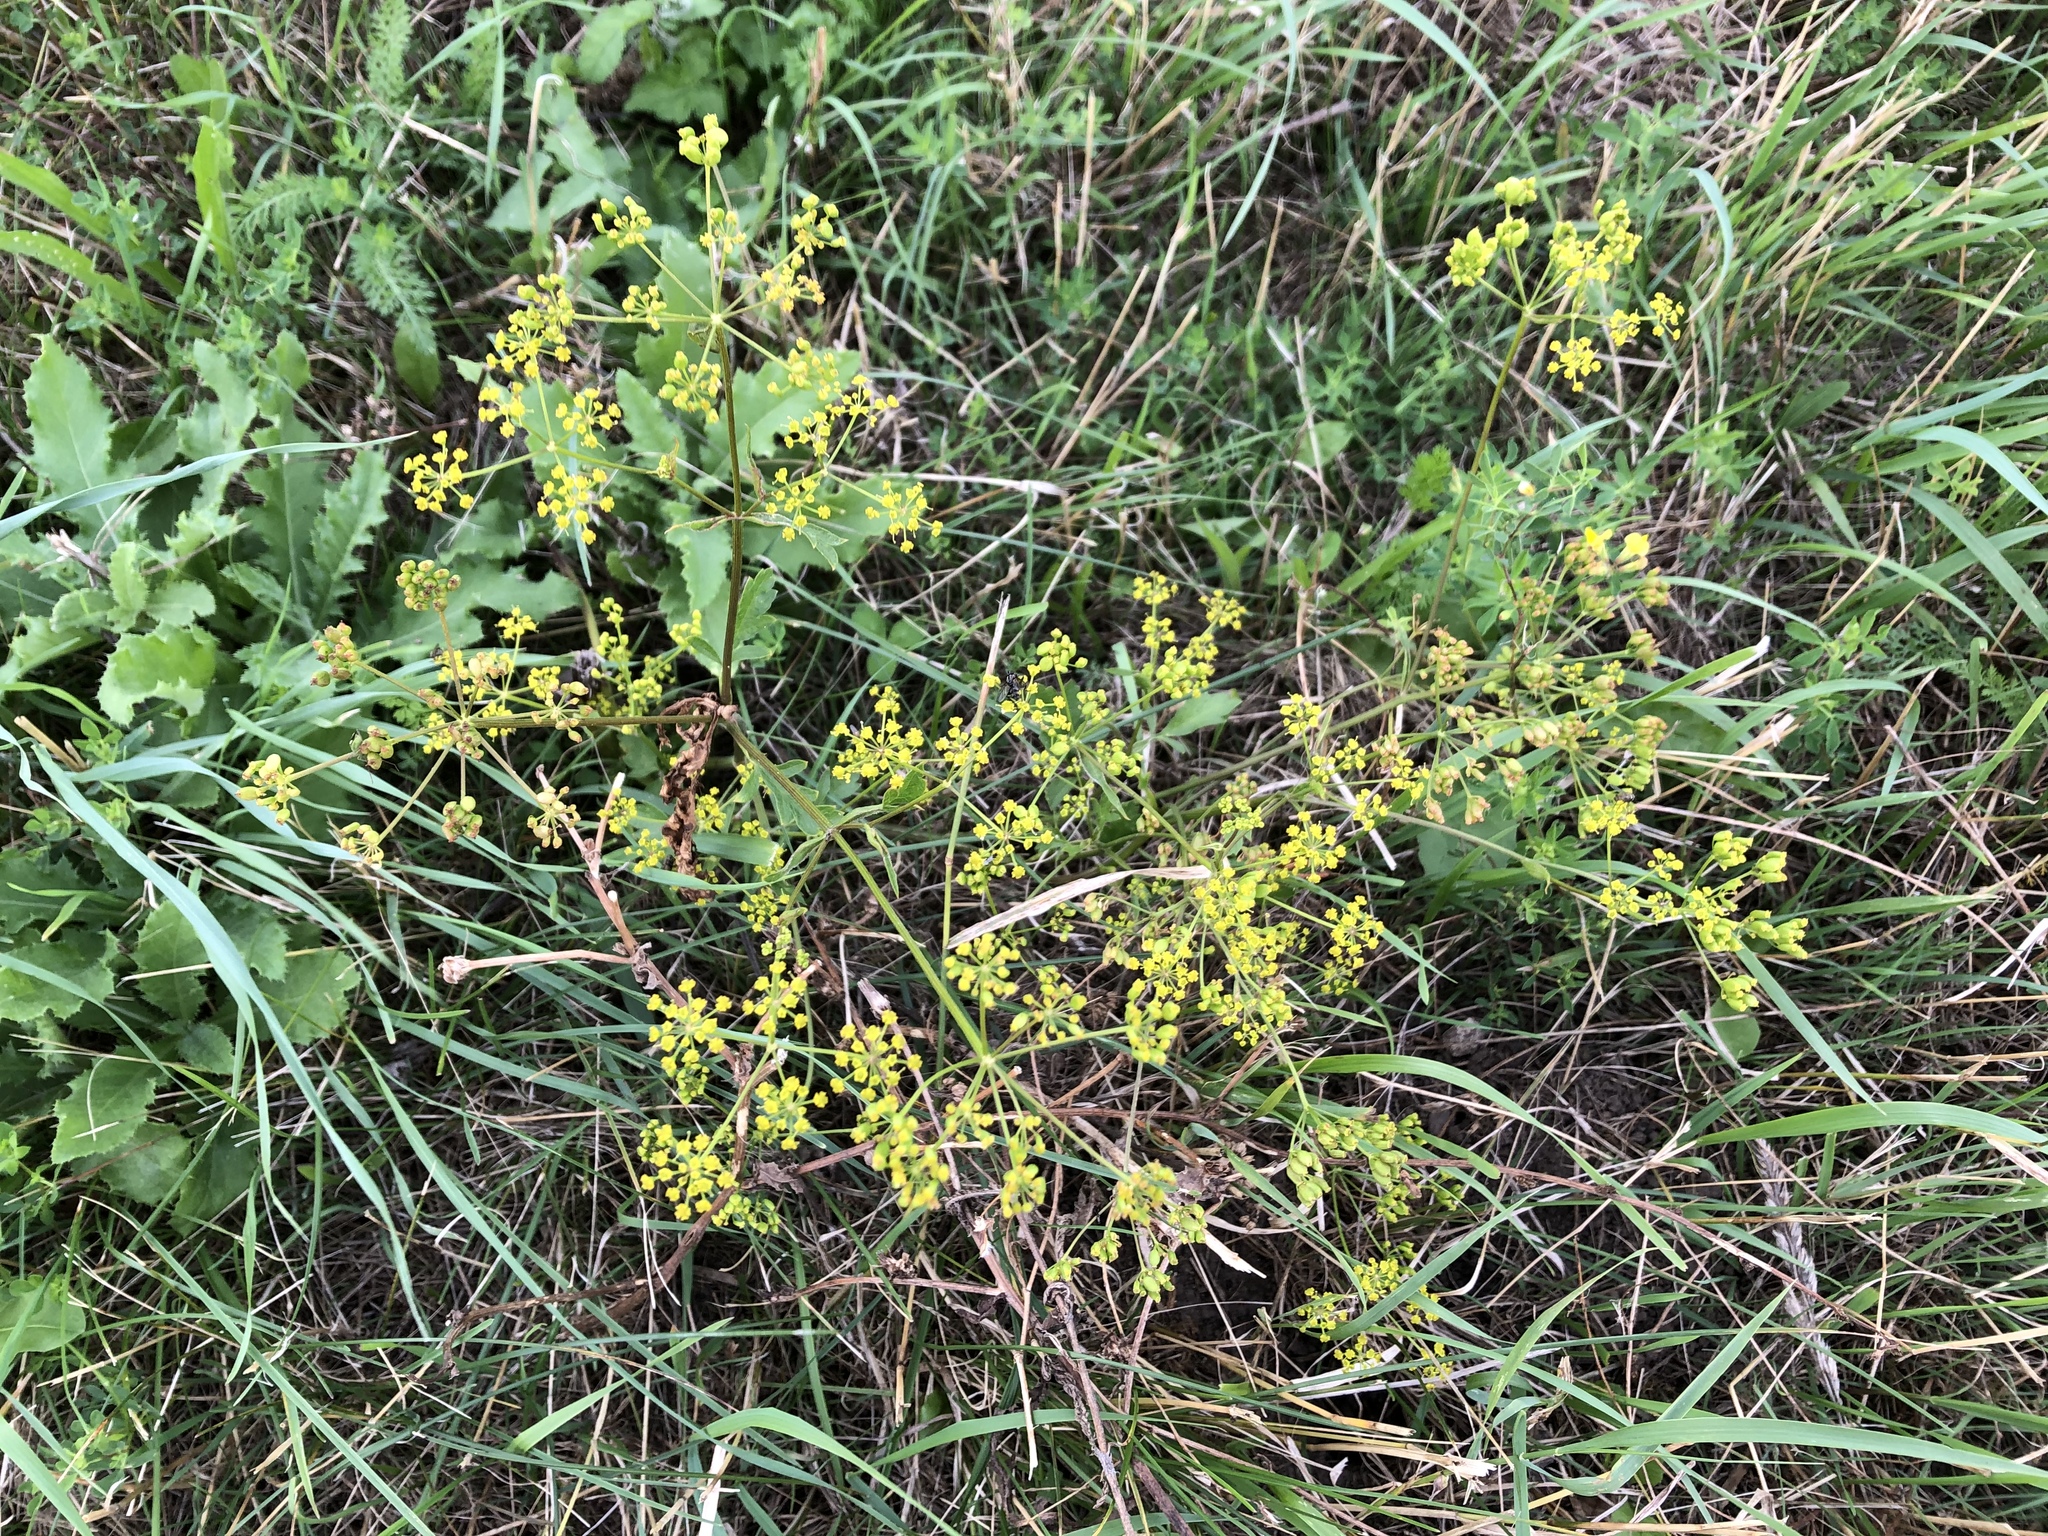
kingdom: Plantae
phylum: Tracheophyta
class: Magnoliopsida
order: Apiales
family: Apiaceae
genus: Pastinaca
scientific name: Pastinaca sativa
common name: Wild parsnip
